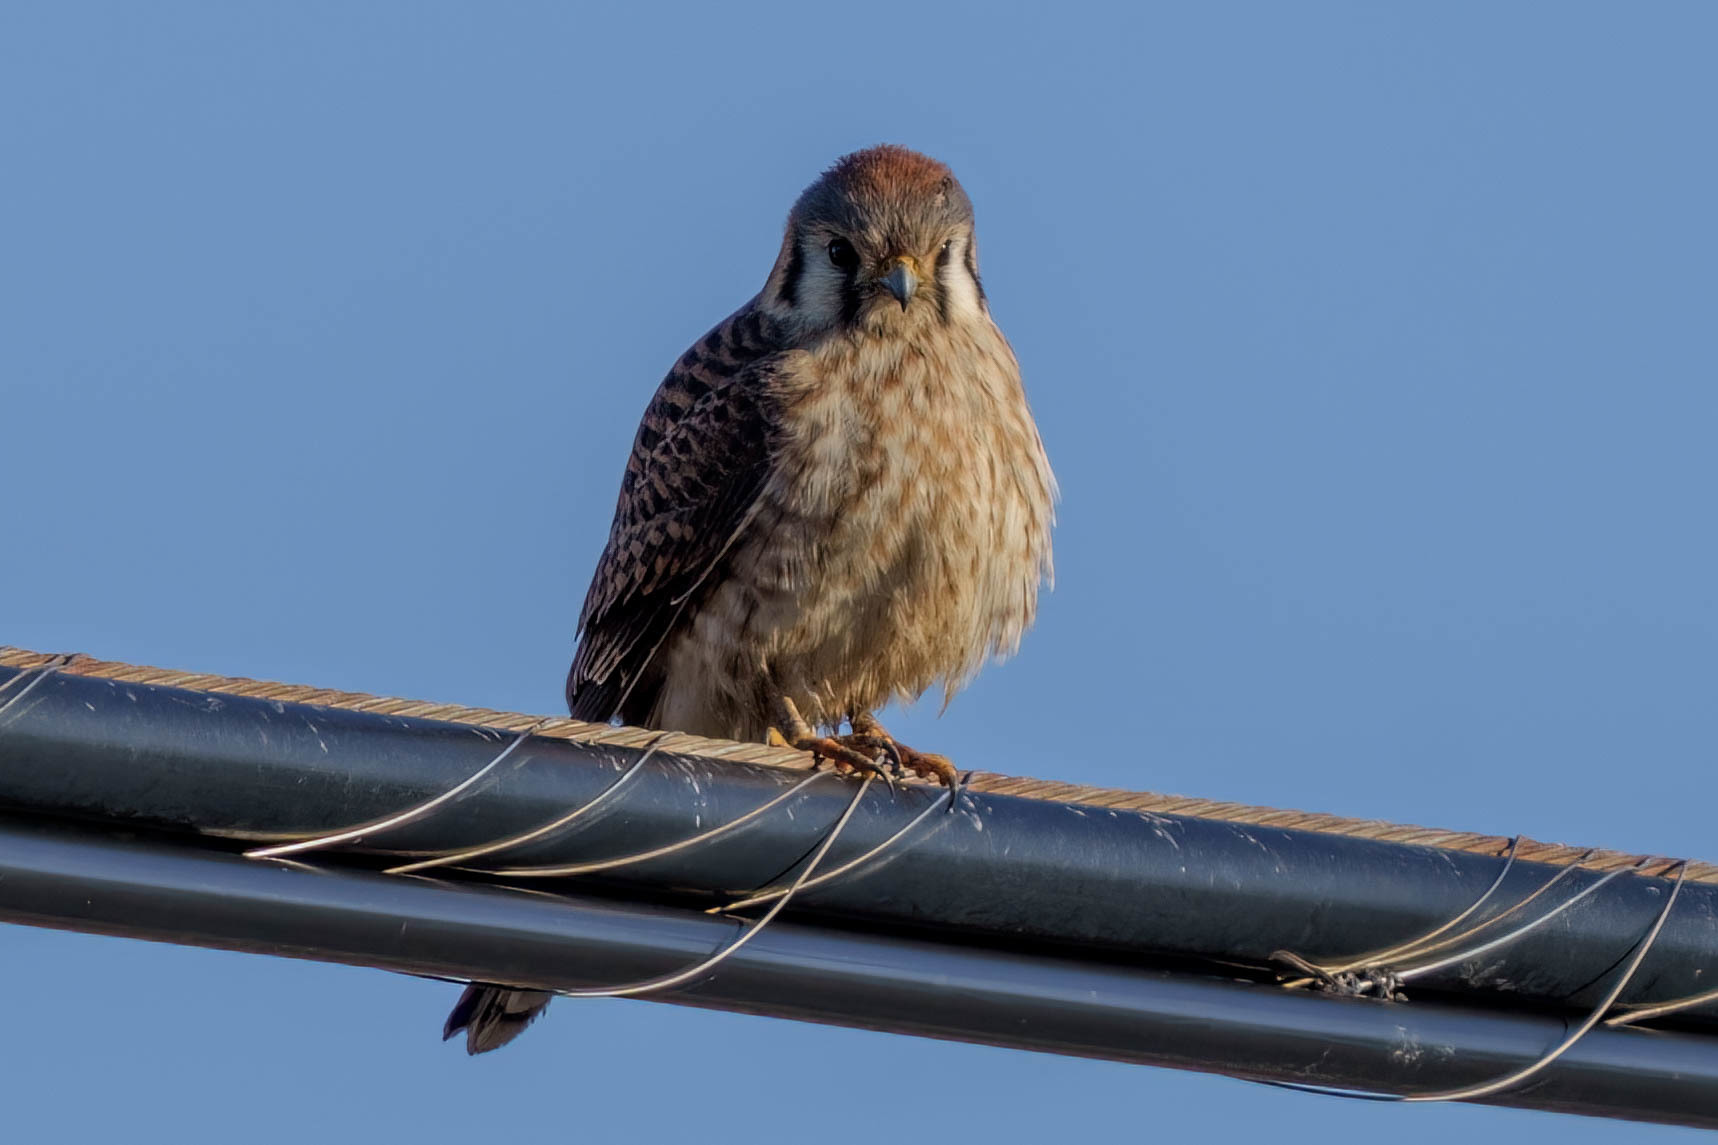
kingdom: Animalia
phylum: Chordata
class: Aves
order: Falconiformes
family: Falconidae
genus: Falco
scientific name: Falco sparverius
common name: American kestrel
